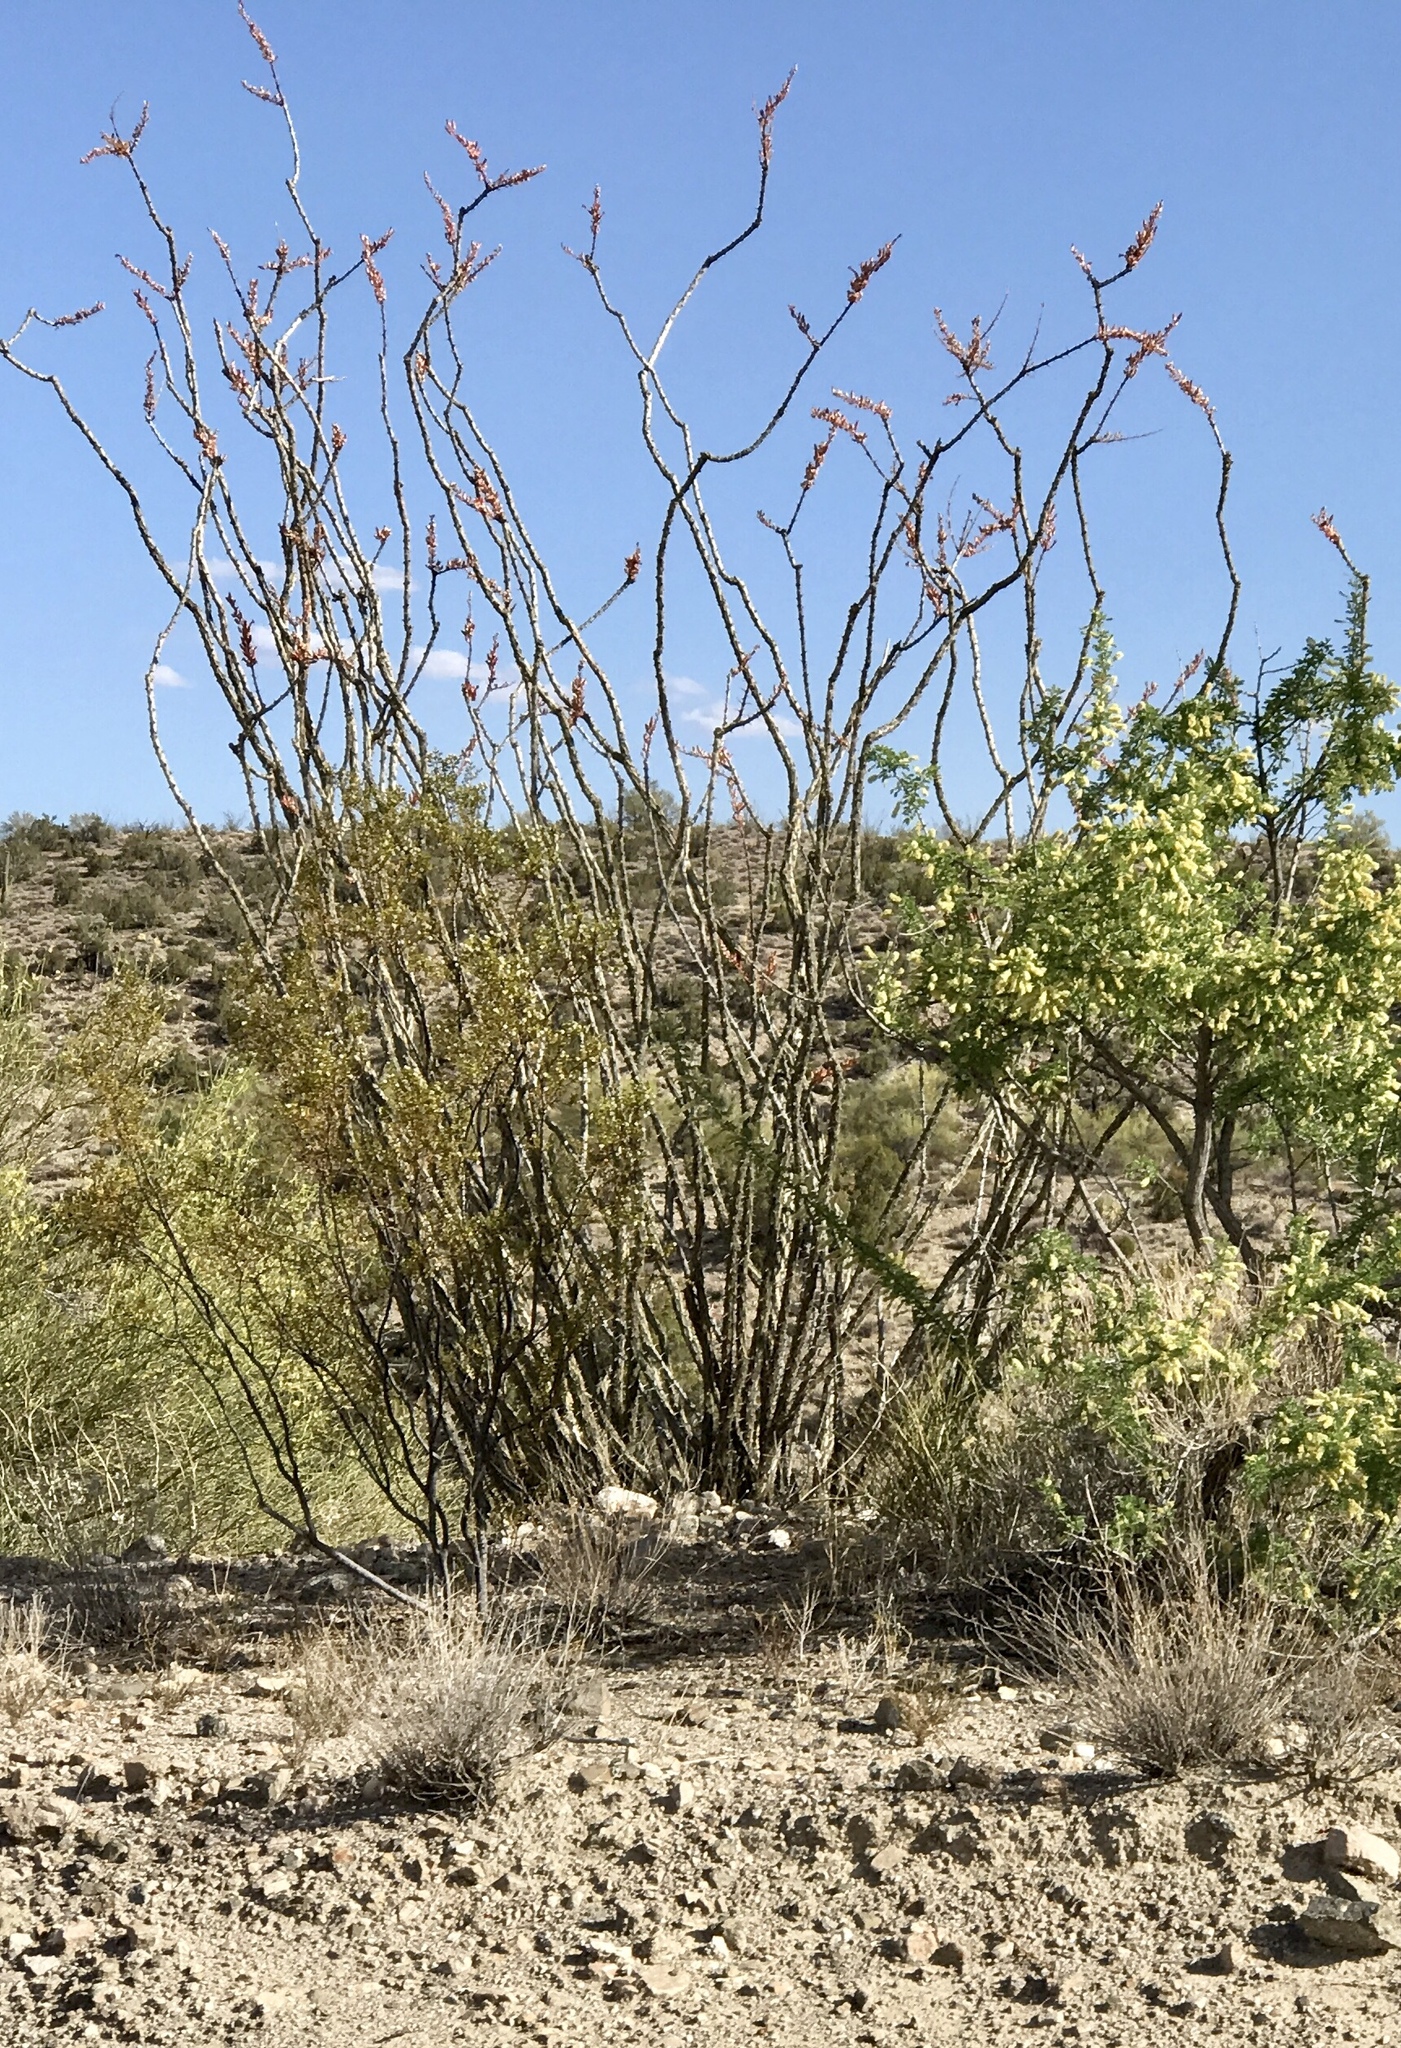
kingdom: Plantae
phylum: Tracheophyta
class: Magnoliopsida
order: Ericales
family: Fouquieriaceae
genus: Fouquieria
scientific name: Fouquieria splendens
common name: Vine-cactus
